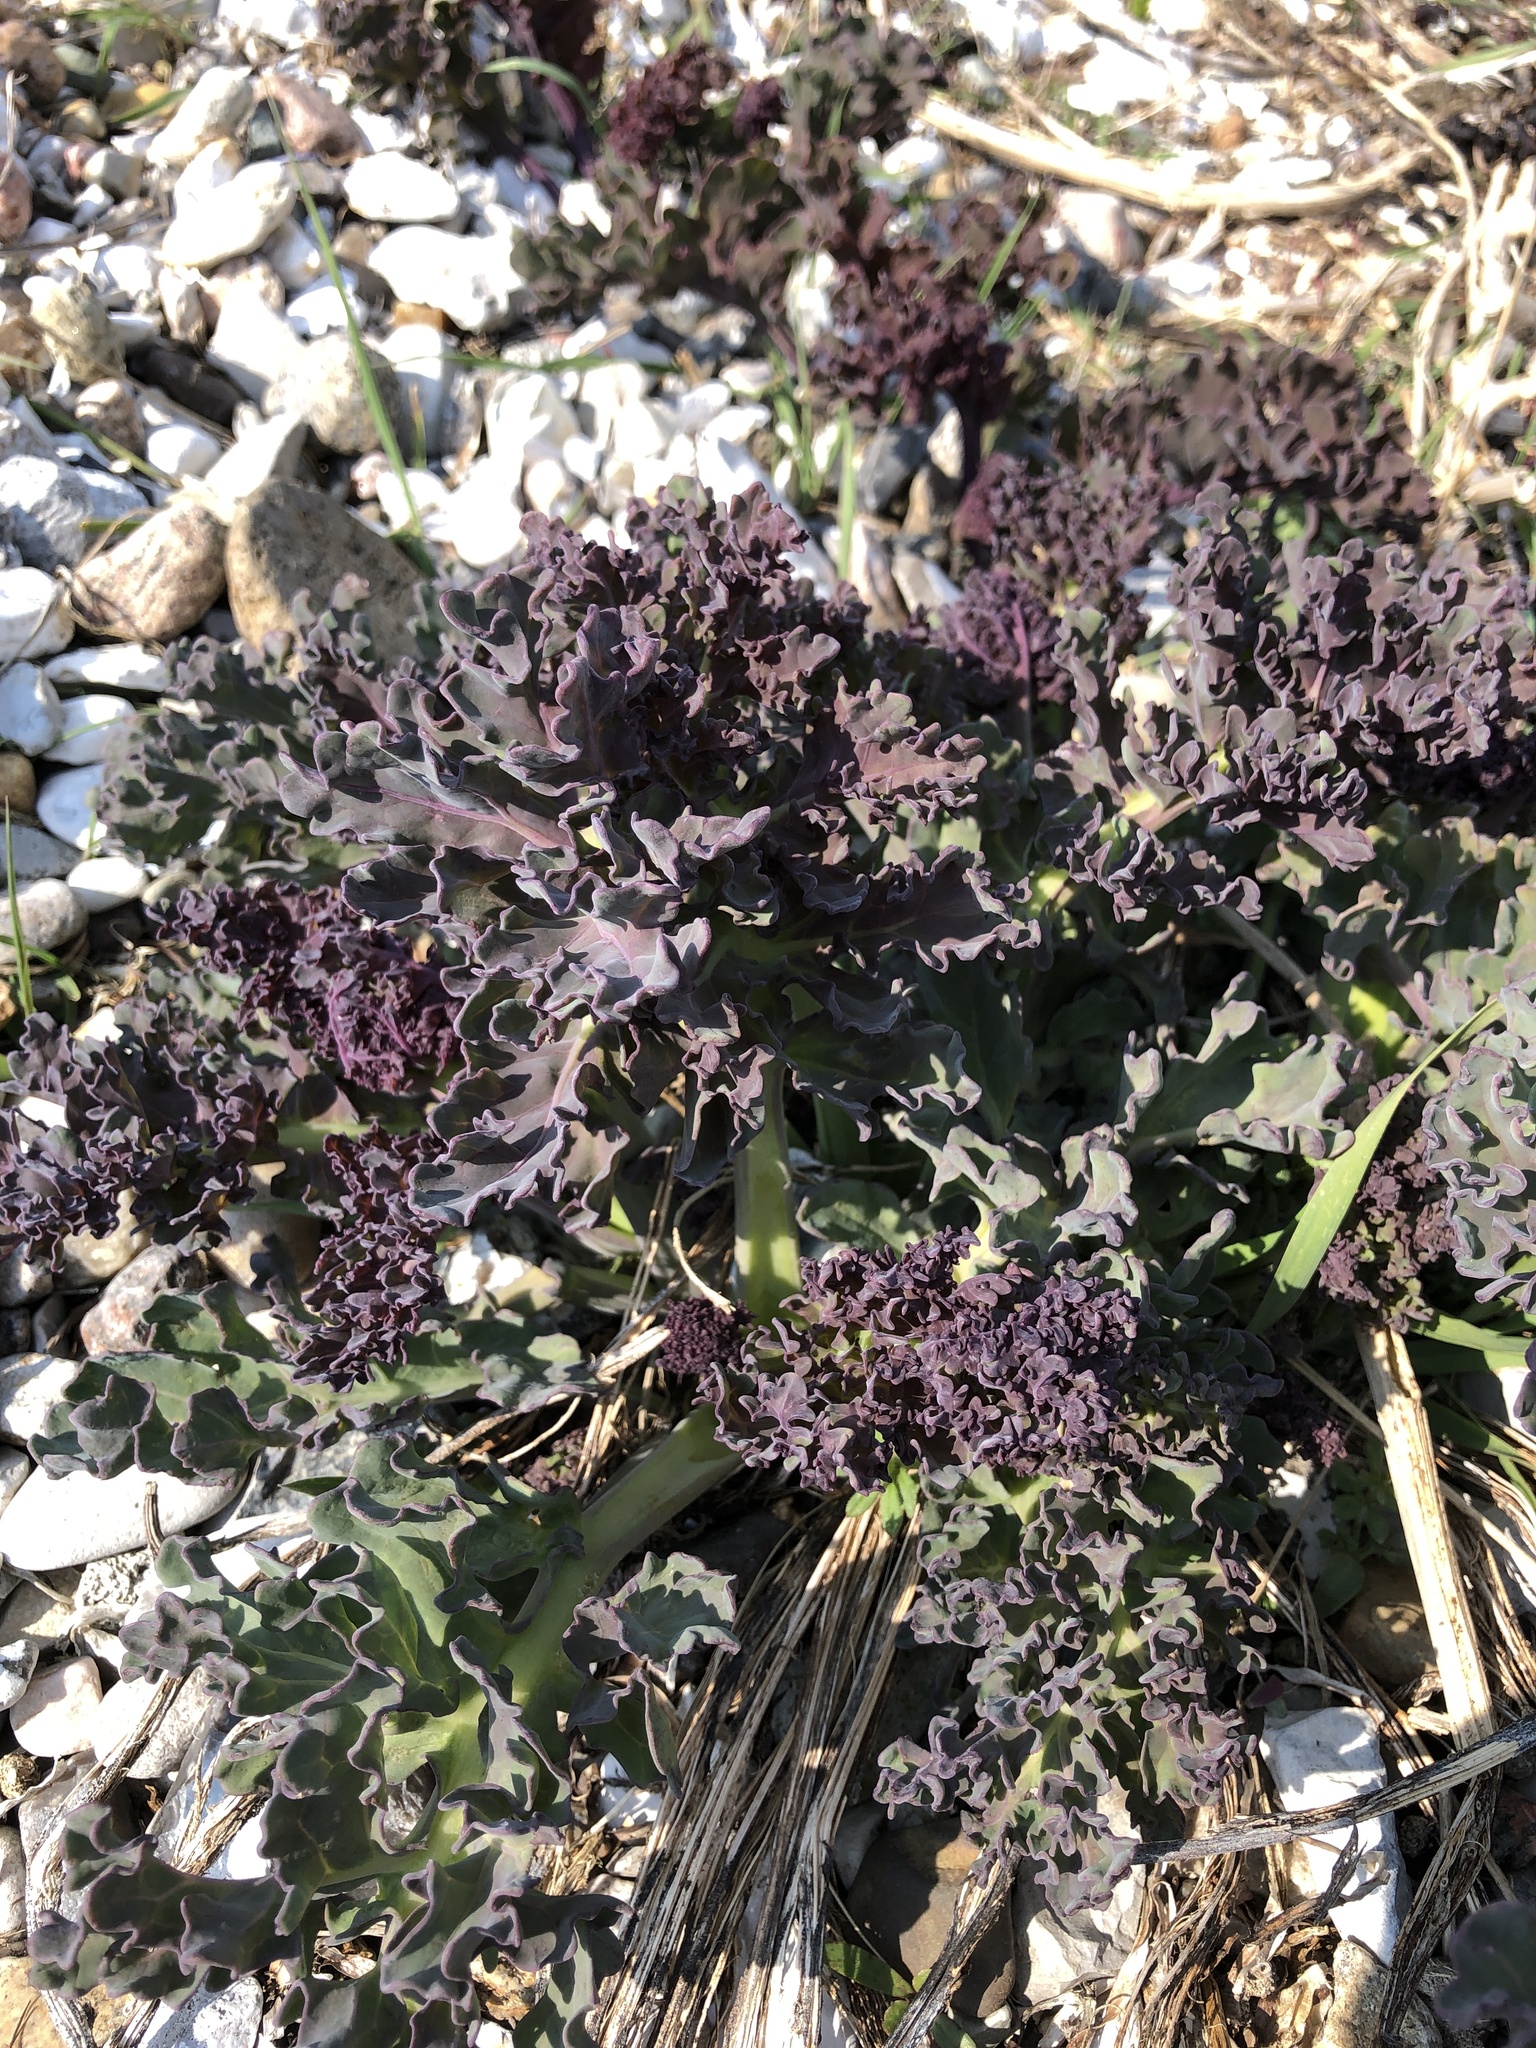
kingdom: Plantae
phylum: Tracheophyta
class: Magnoliopsida
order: Brassicales
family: Brassicaceae
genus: Crambe
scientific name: Crambe maritima
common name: Sea-kale
